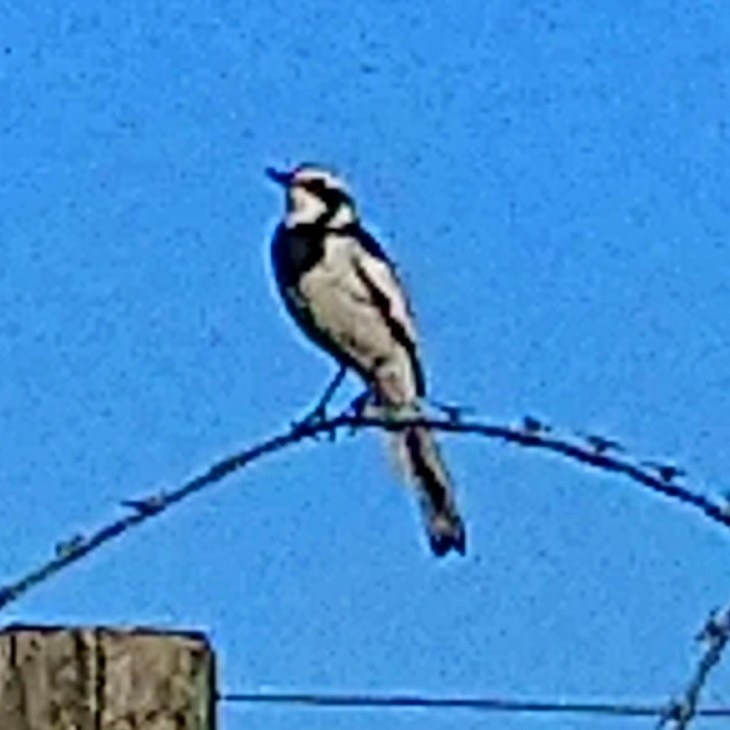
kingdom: Animalia
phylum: Chordata
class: Aves
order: Passeriformes
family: Motacillidae
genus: Motacilla
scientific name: Motacilla aguimp
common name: African pied wagtail
